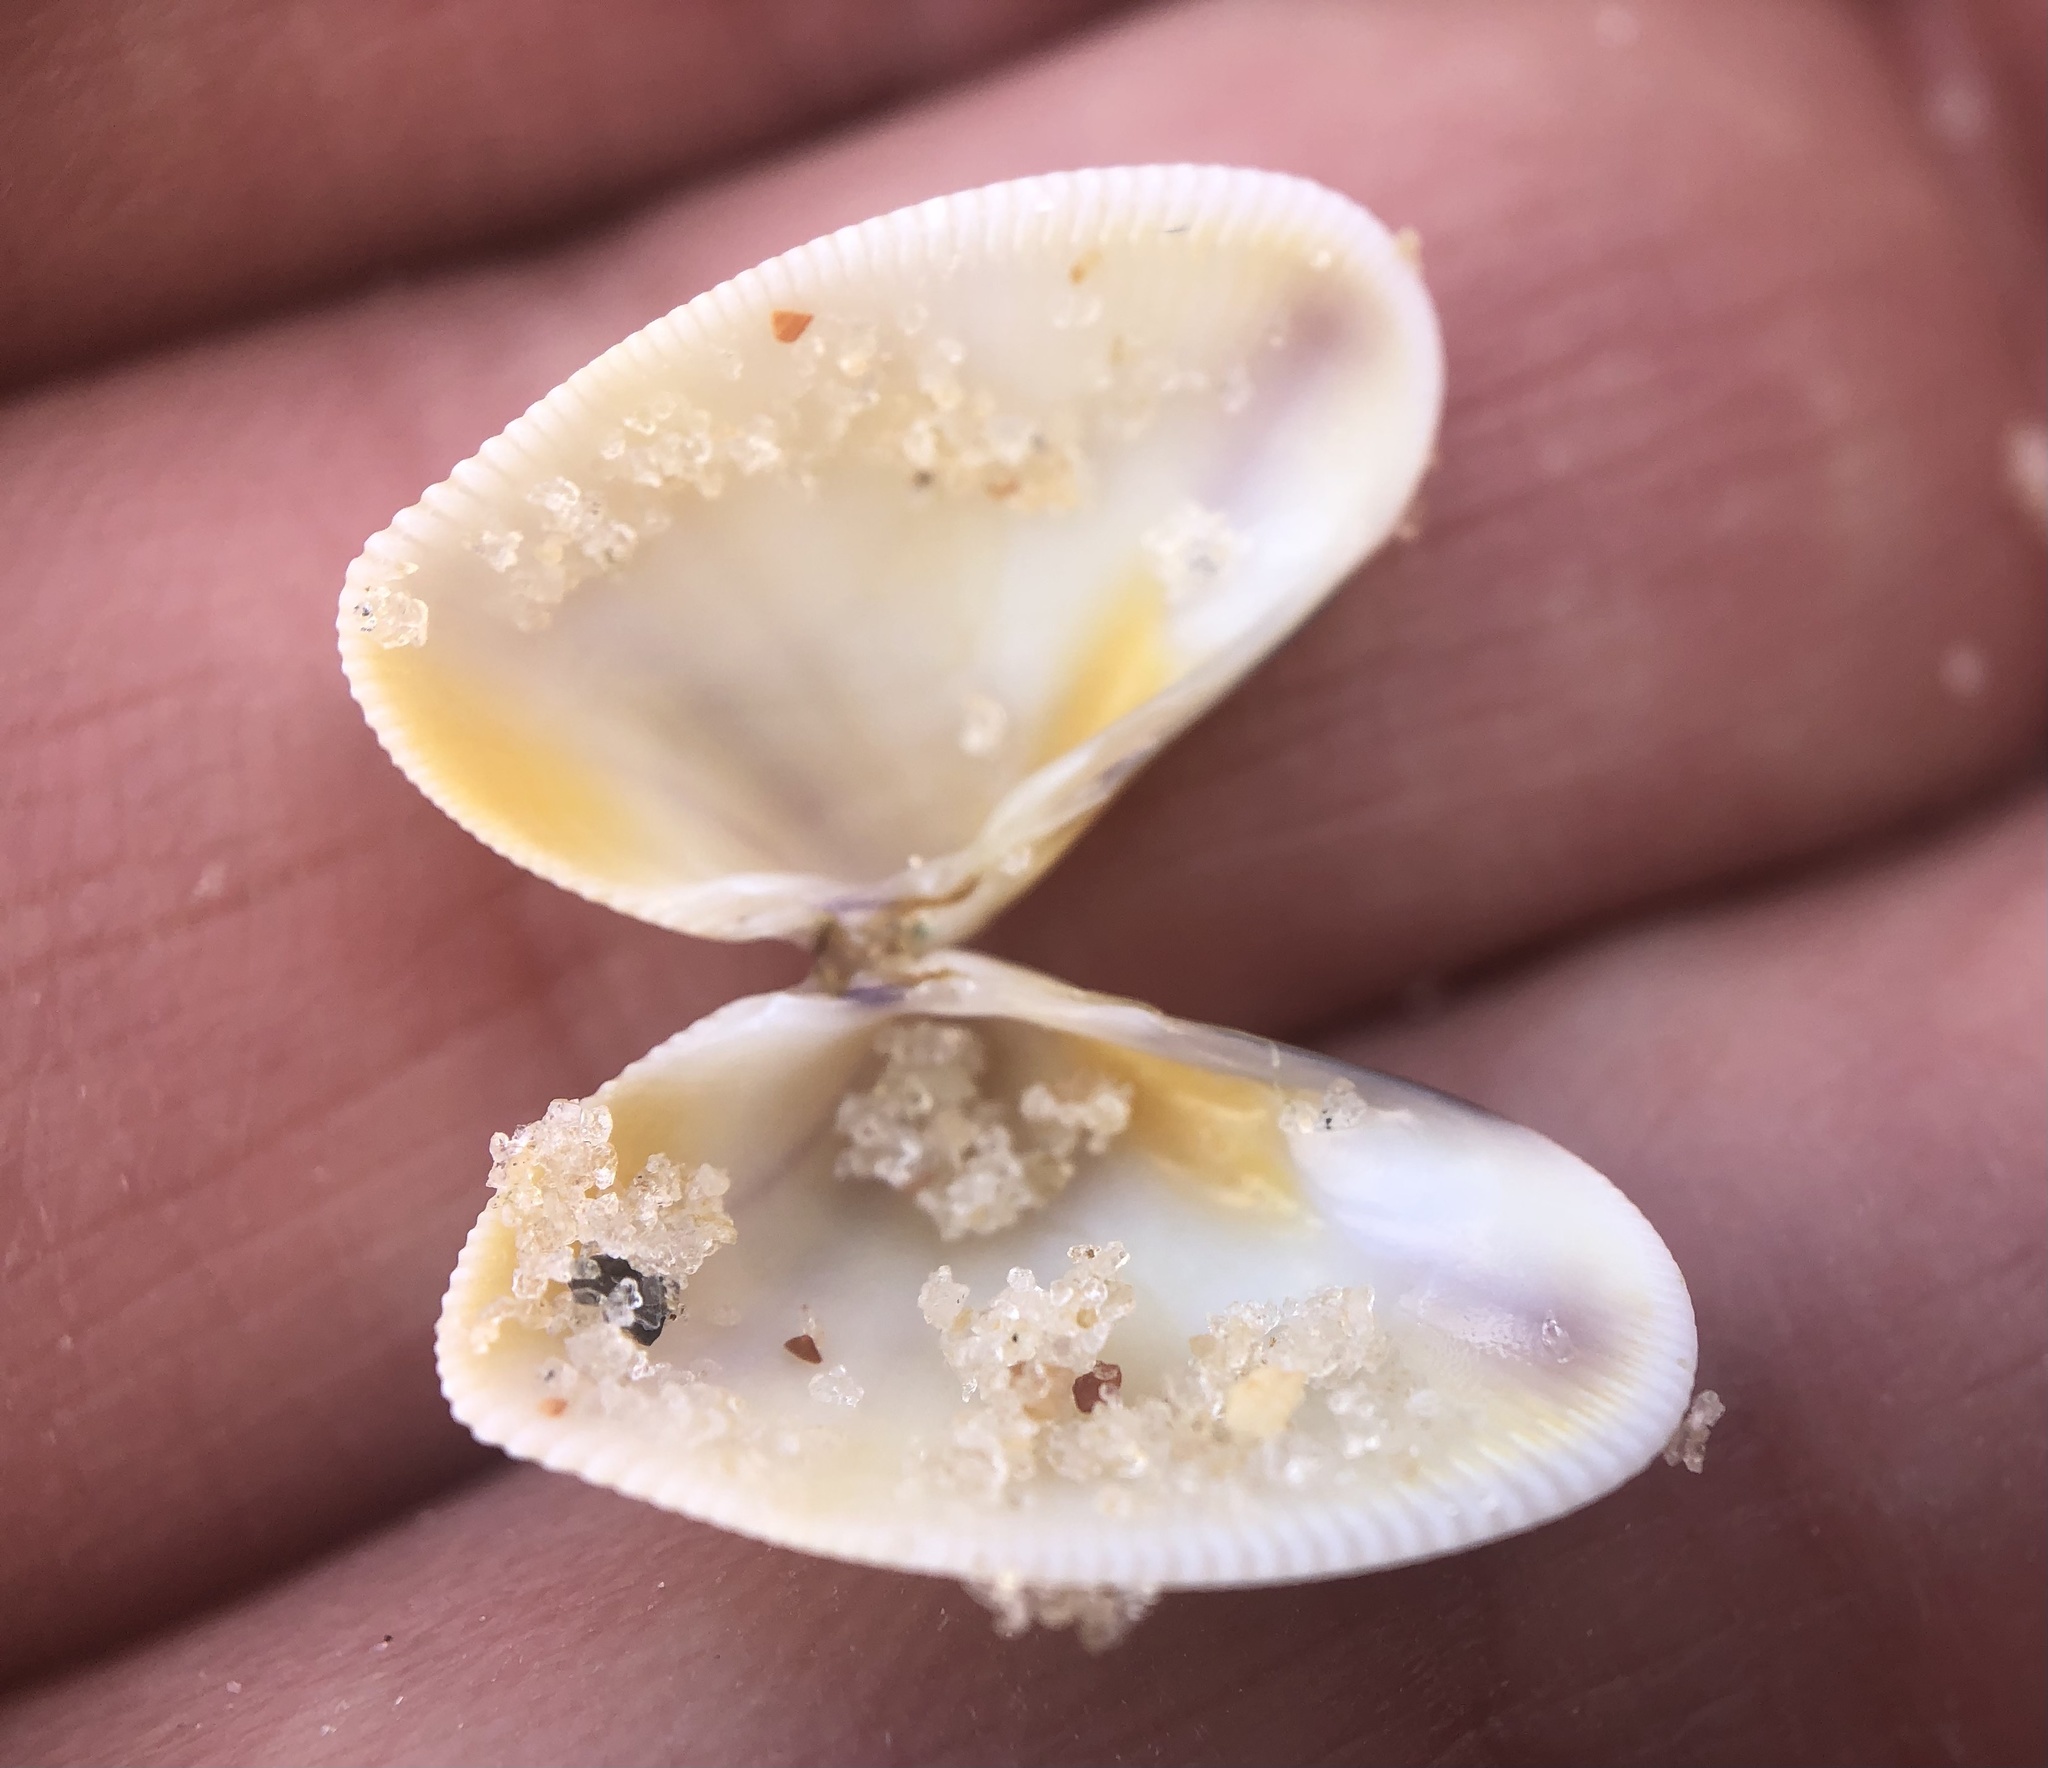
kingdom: Animalia
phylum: Mollusca
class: Bivalvia
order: Cardiida
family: Donacidae
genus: Donax
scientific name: Donax variabilis
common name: Butterfly shell
